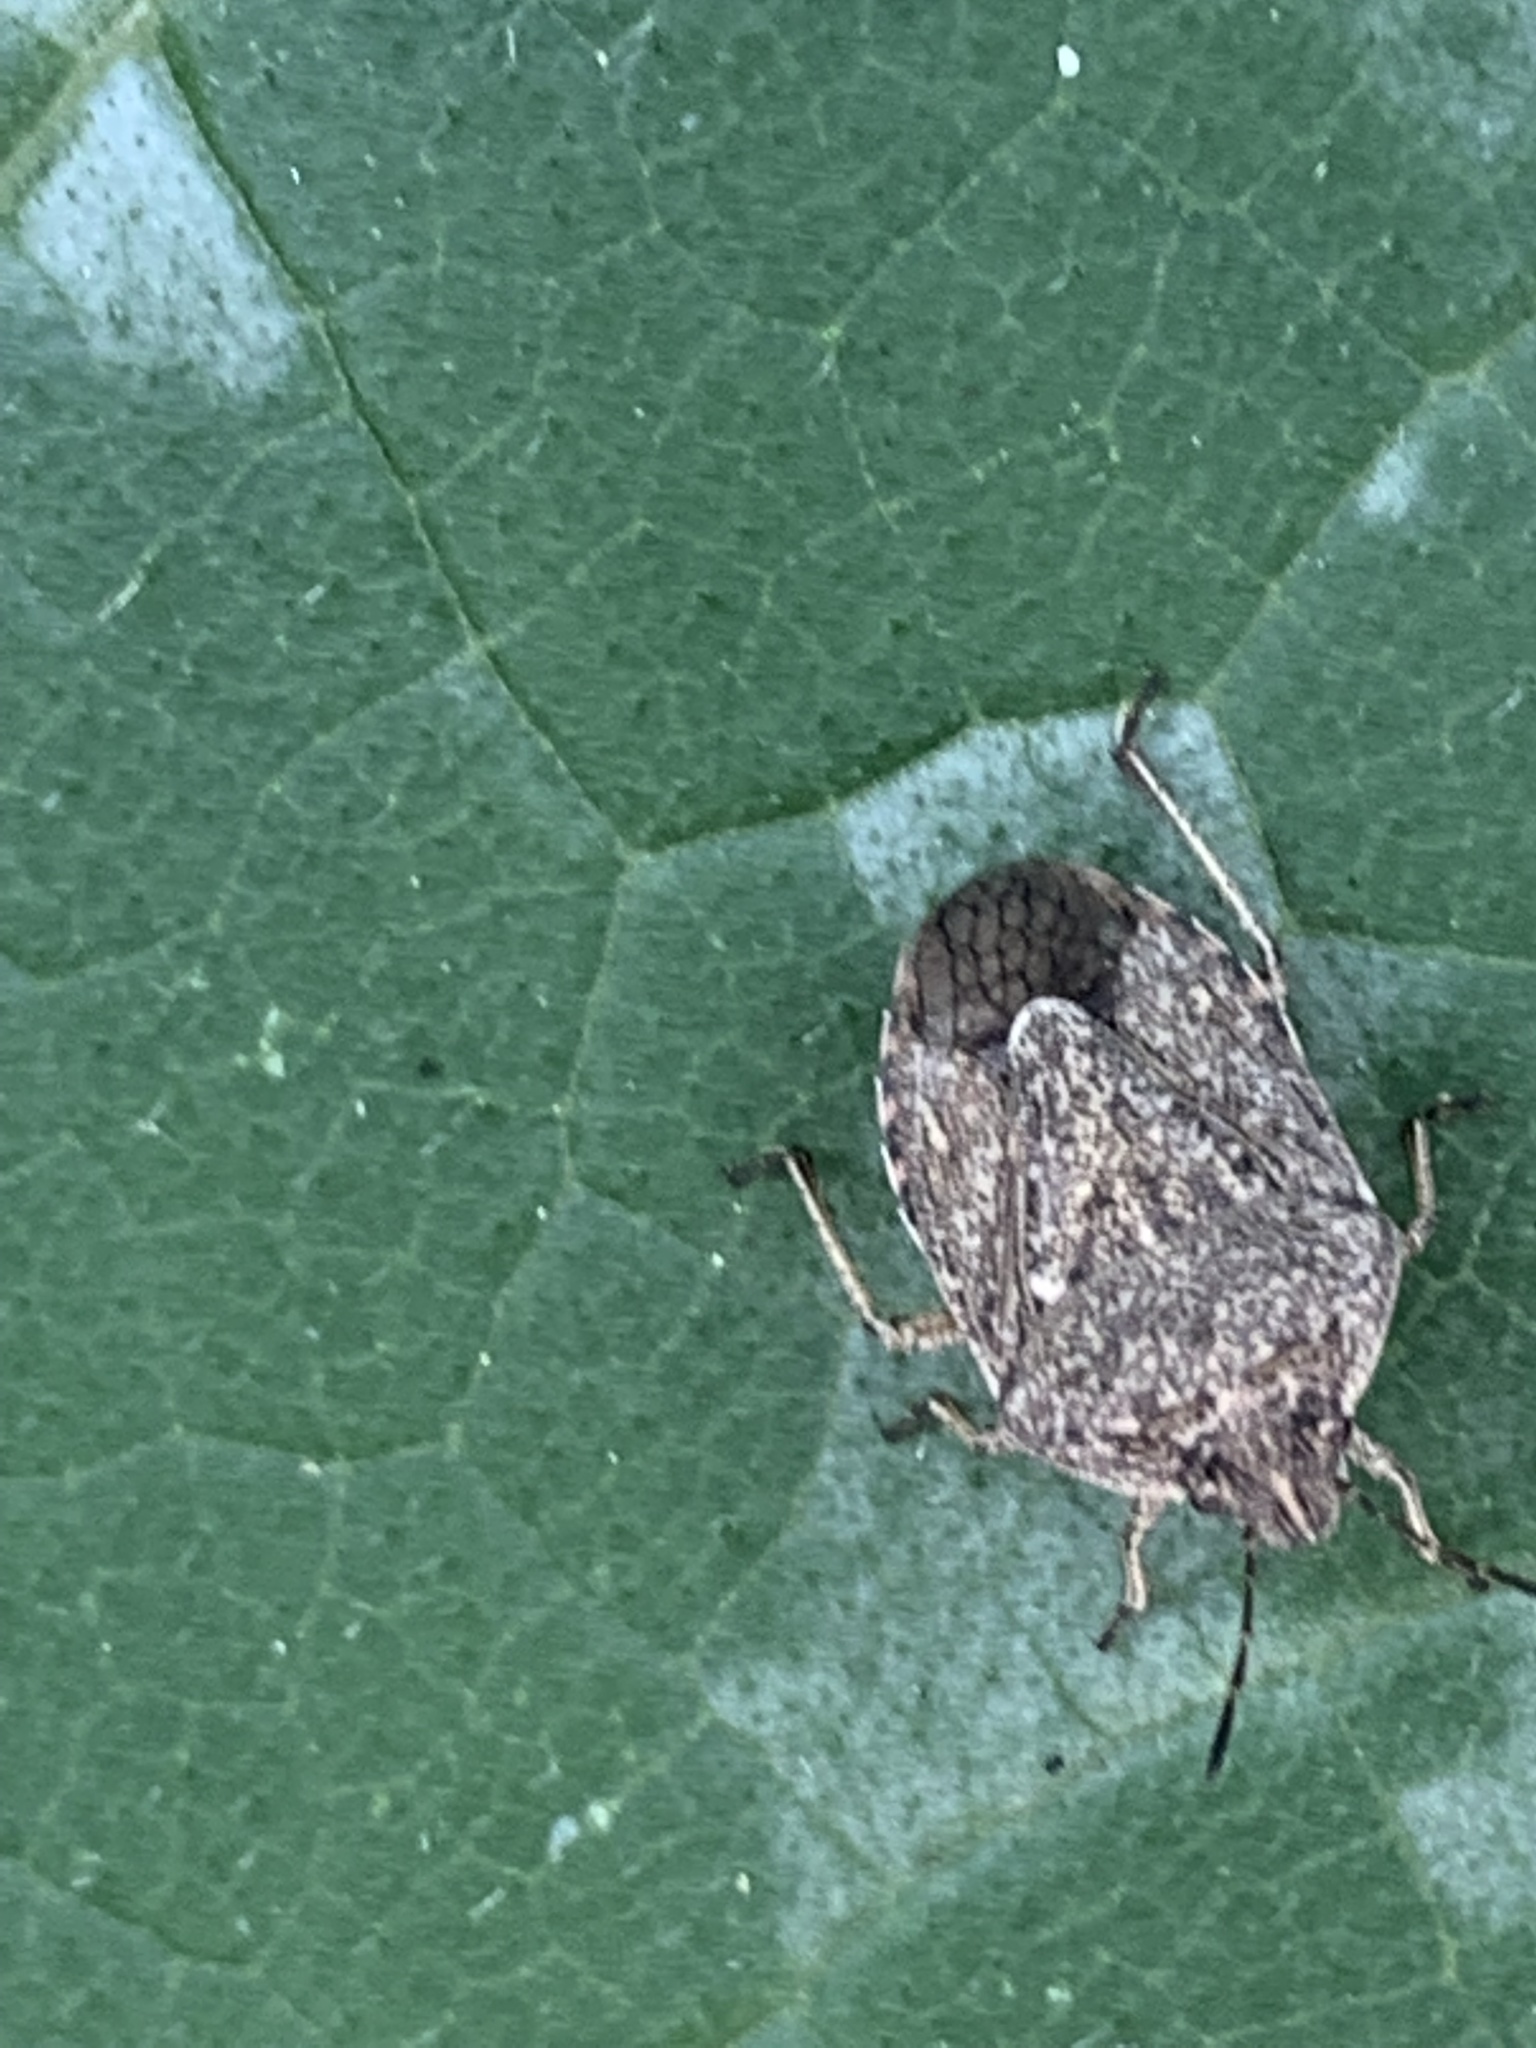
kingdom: Animalia
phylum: Arthropoda
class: Insecta
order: Hemiptera
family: Pentatomidae
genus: Hymenarcys
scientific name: Hymenarcys nervosa
